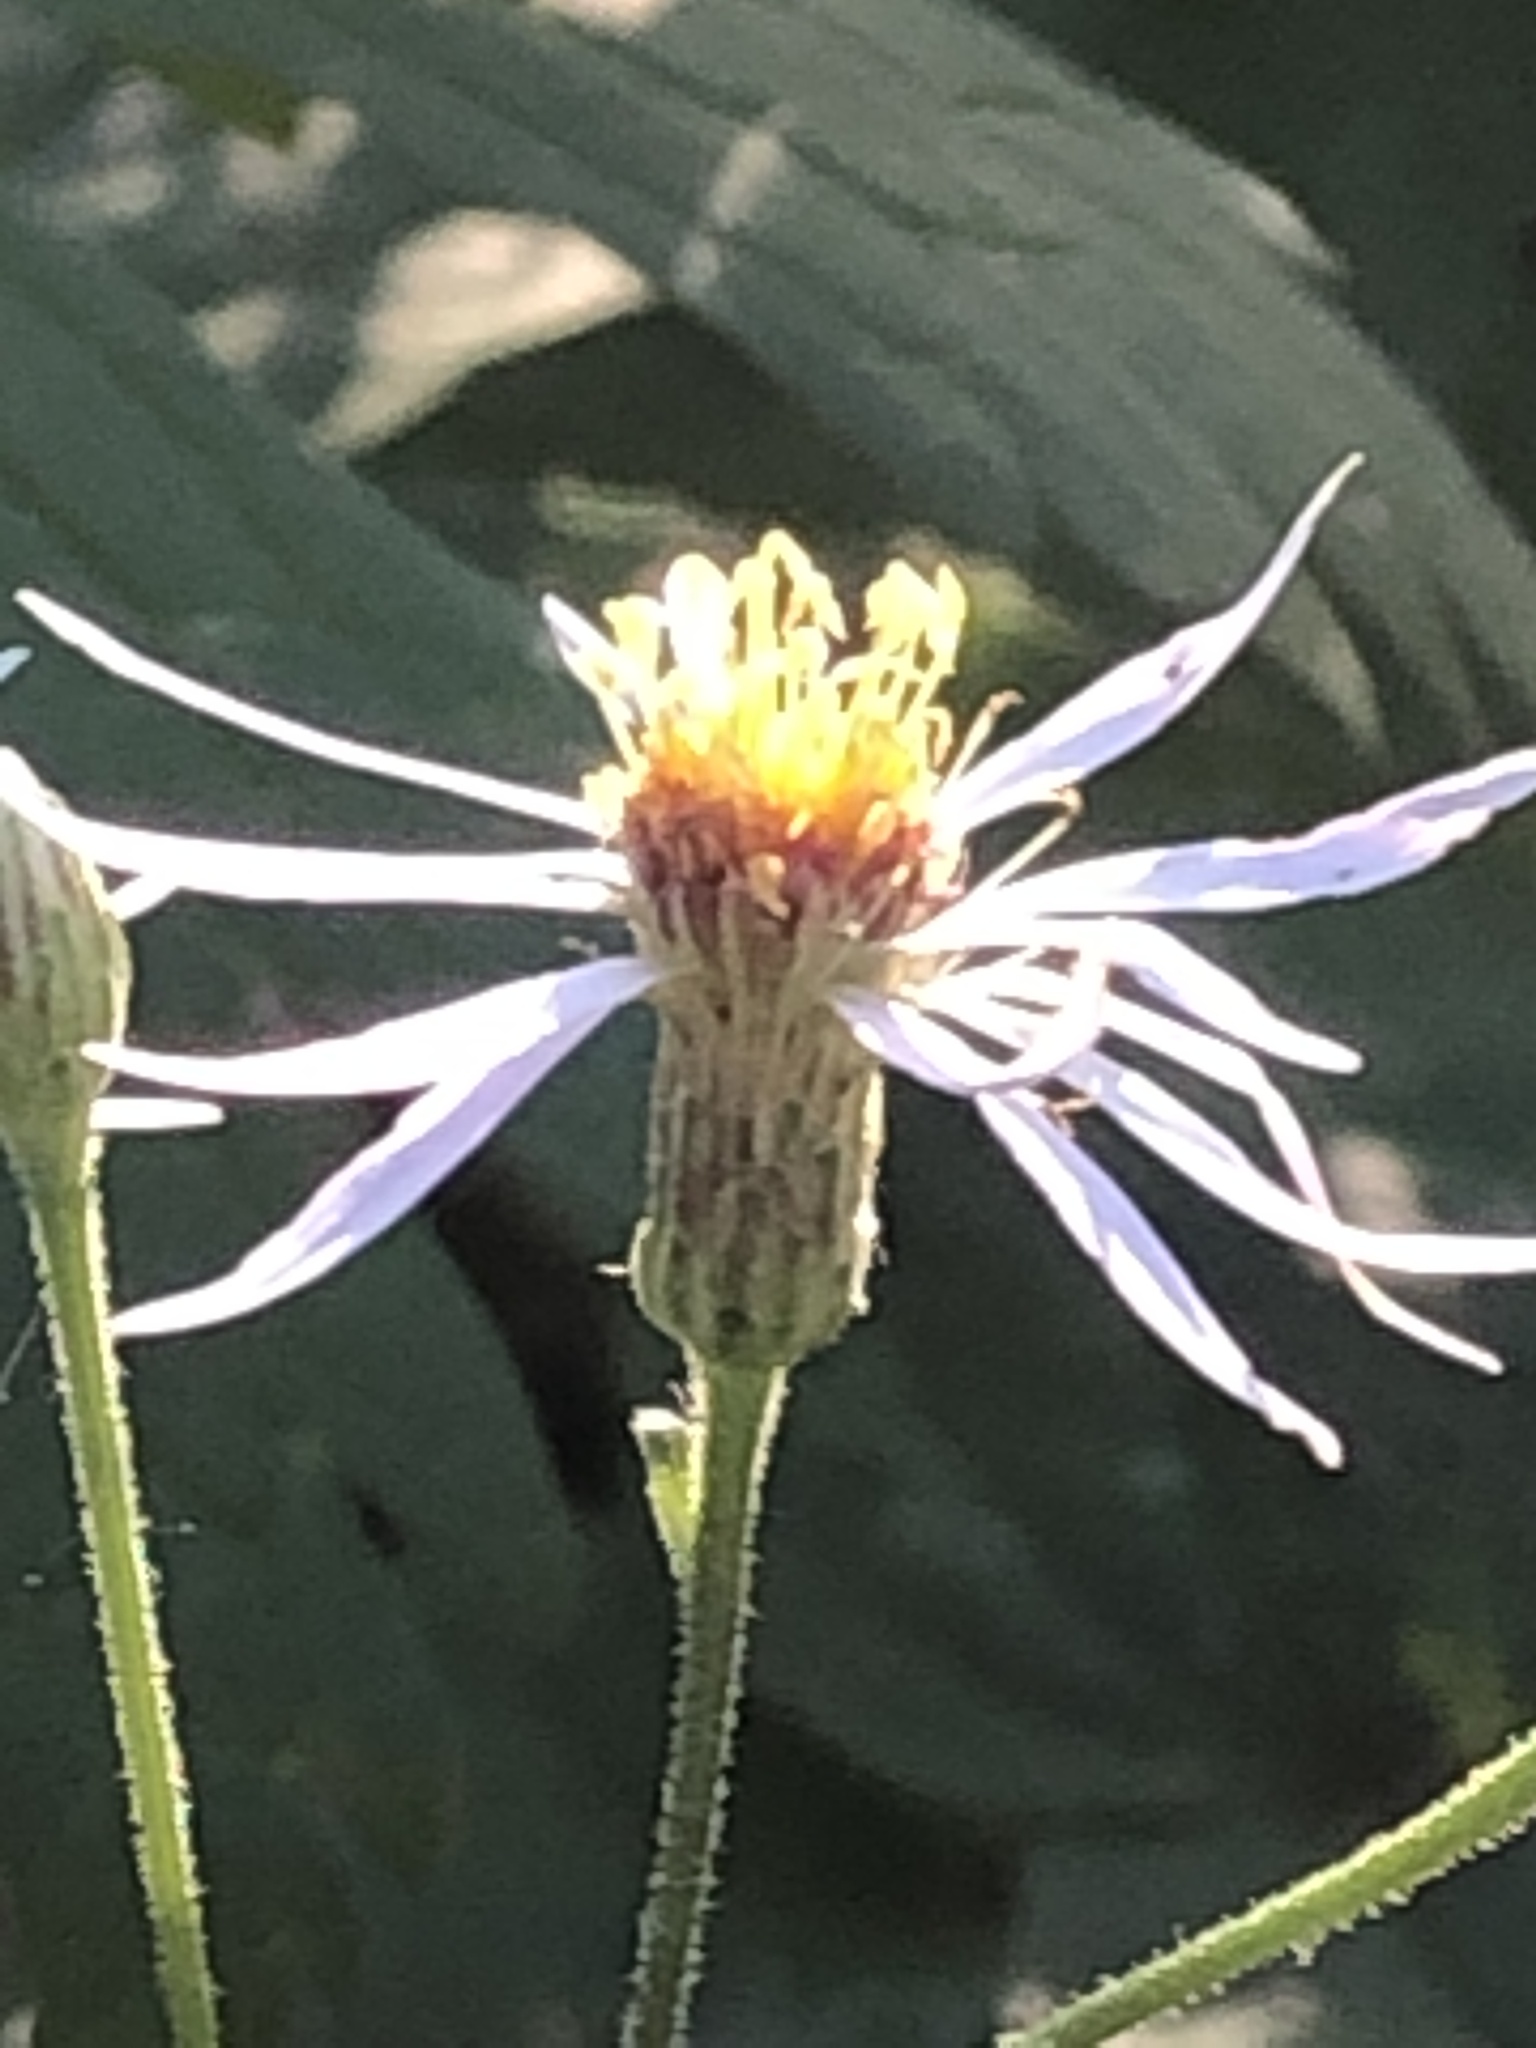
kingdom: Plantae
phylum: Tracheophyta
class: Magnoliopsida
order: Asterales
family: Asteraceae
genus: Eurybia
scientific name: Eurybia macrophylla
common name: Big-leaved aster
